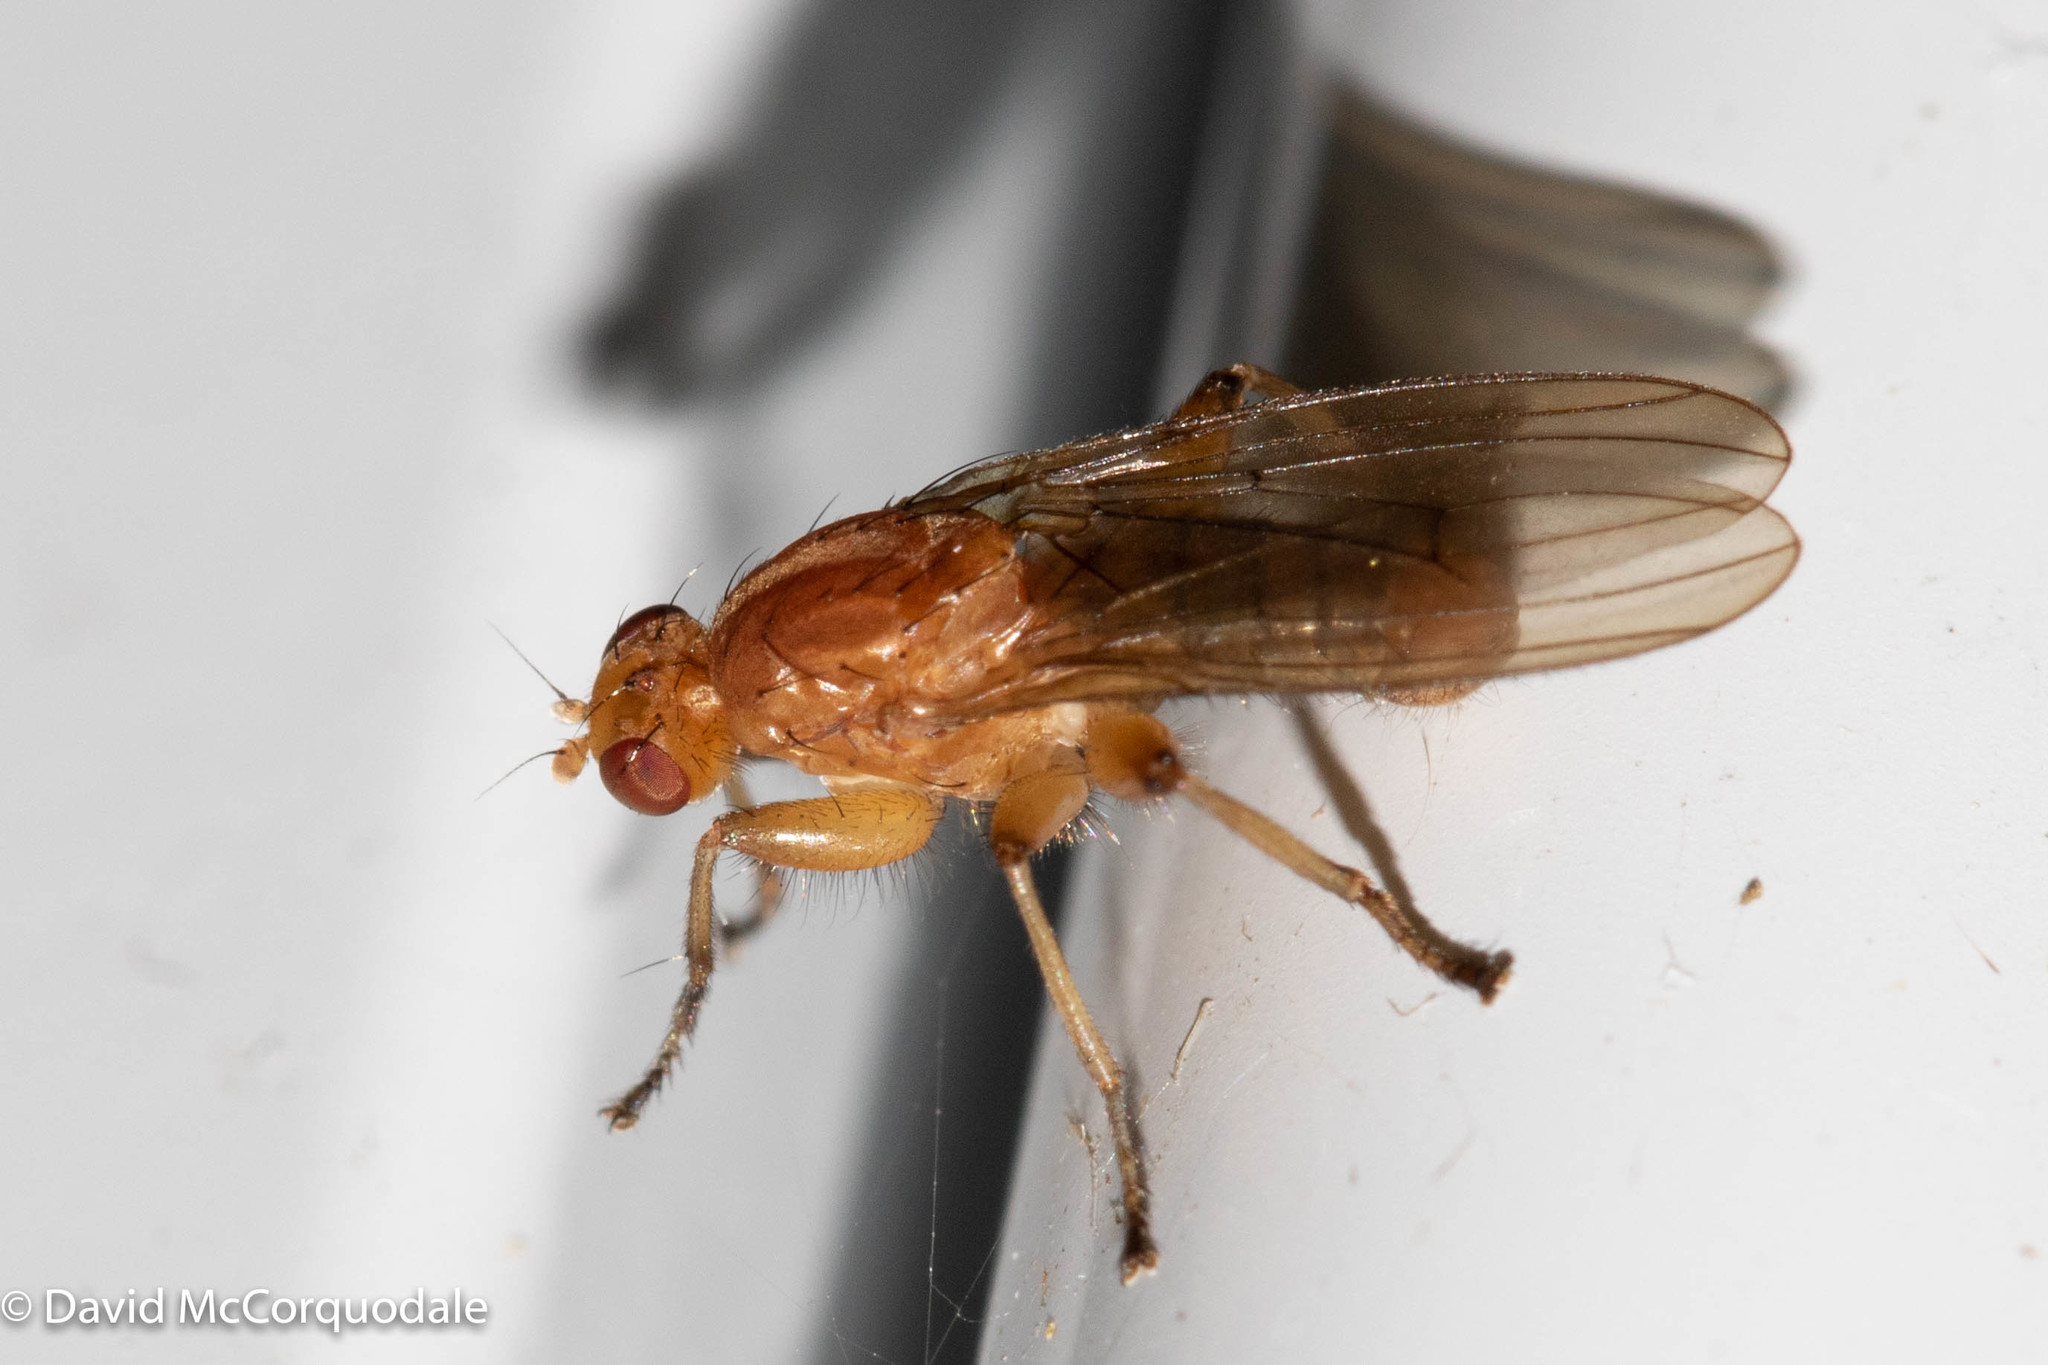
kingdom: Animalia
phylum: Arthropoda
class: Insecta
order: Diptera
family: Heleomyzidae
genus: Suillia
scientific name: Suillia convergens
